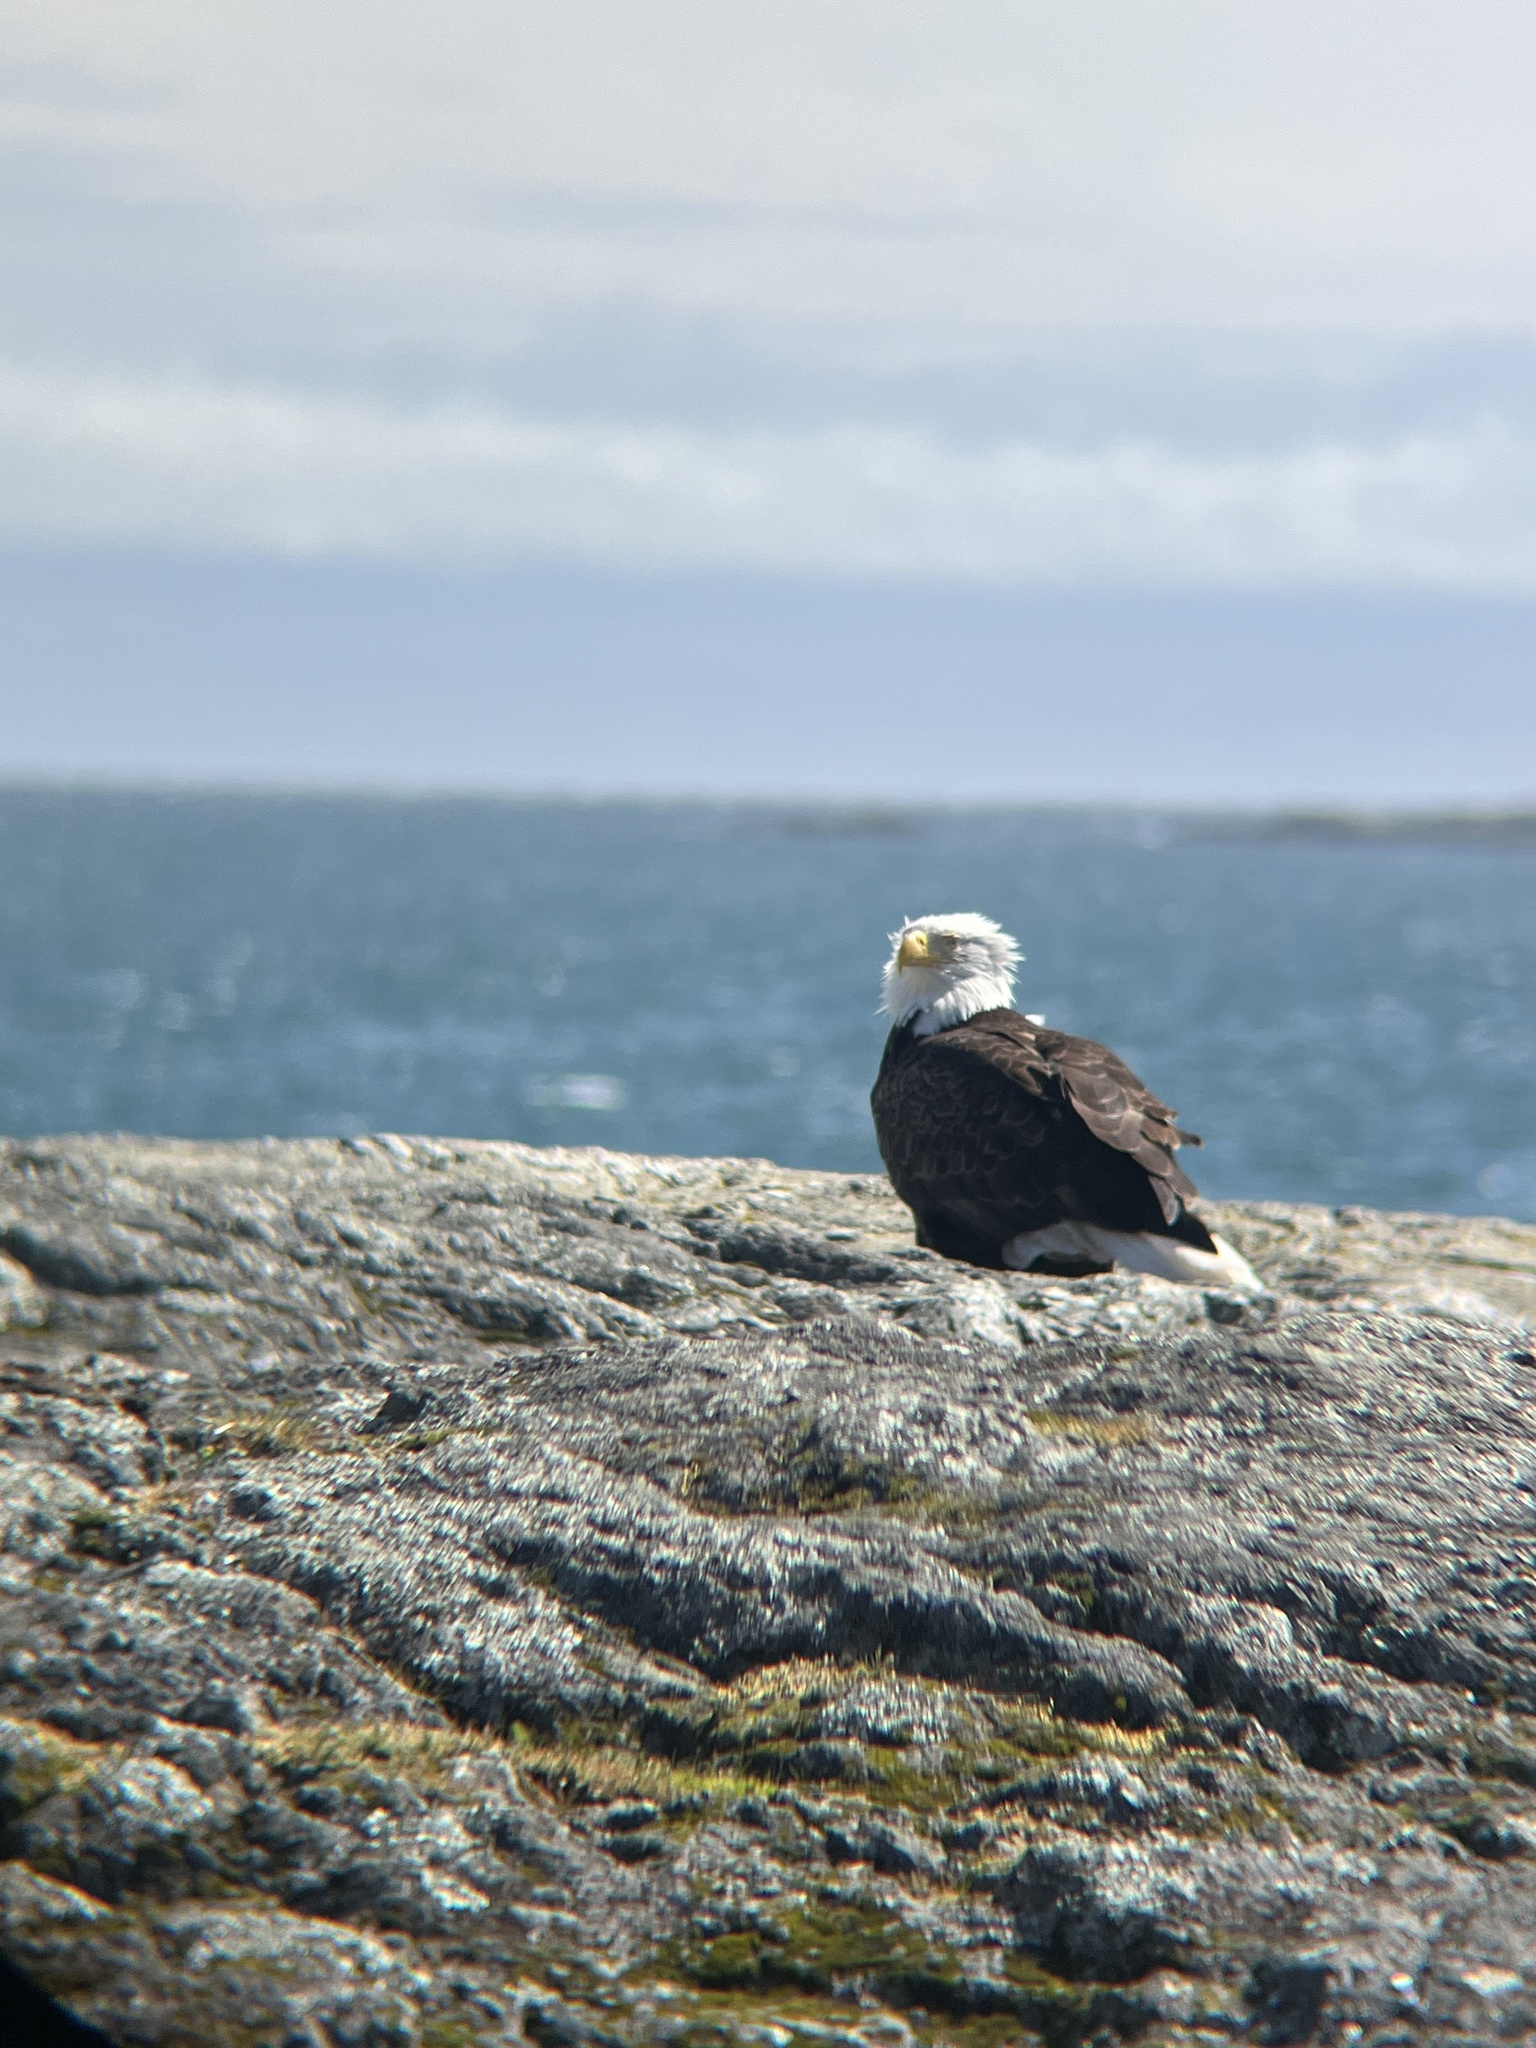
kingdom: Animalia
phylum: Chordata
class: Aves
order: Accipitriformes
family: Accipitridae
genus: Haliaeetus
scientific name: Haliaeetus leucocephalus
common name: Bald eagle
